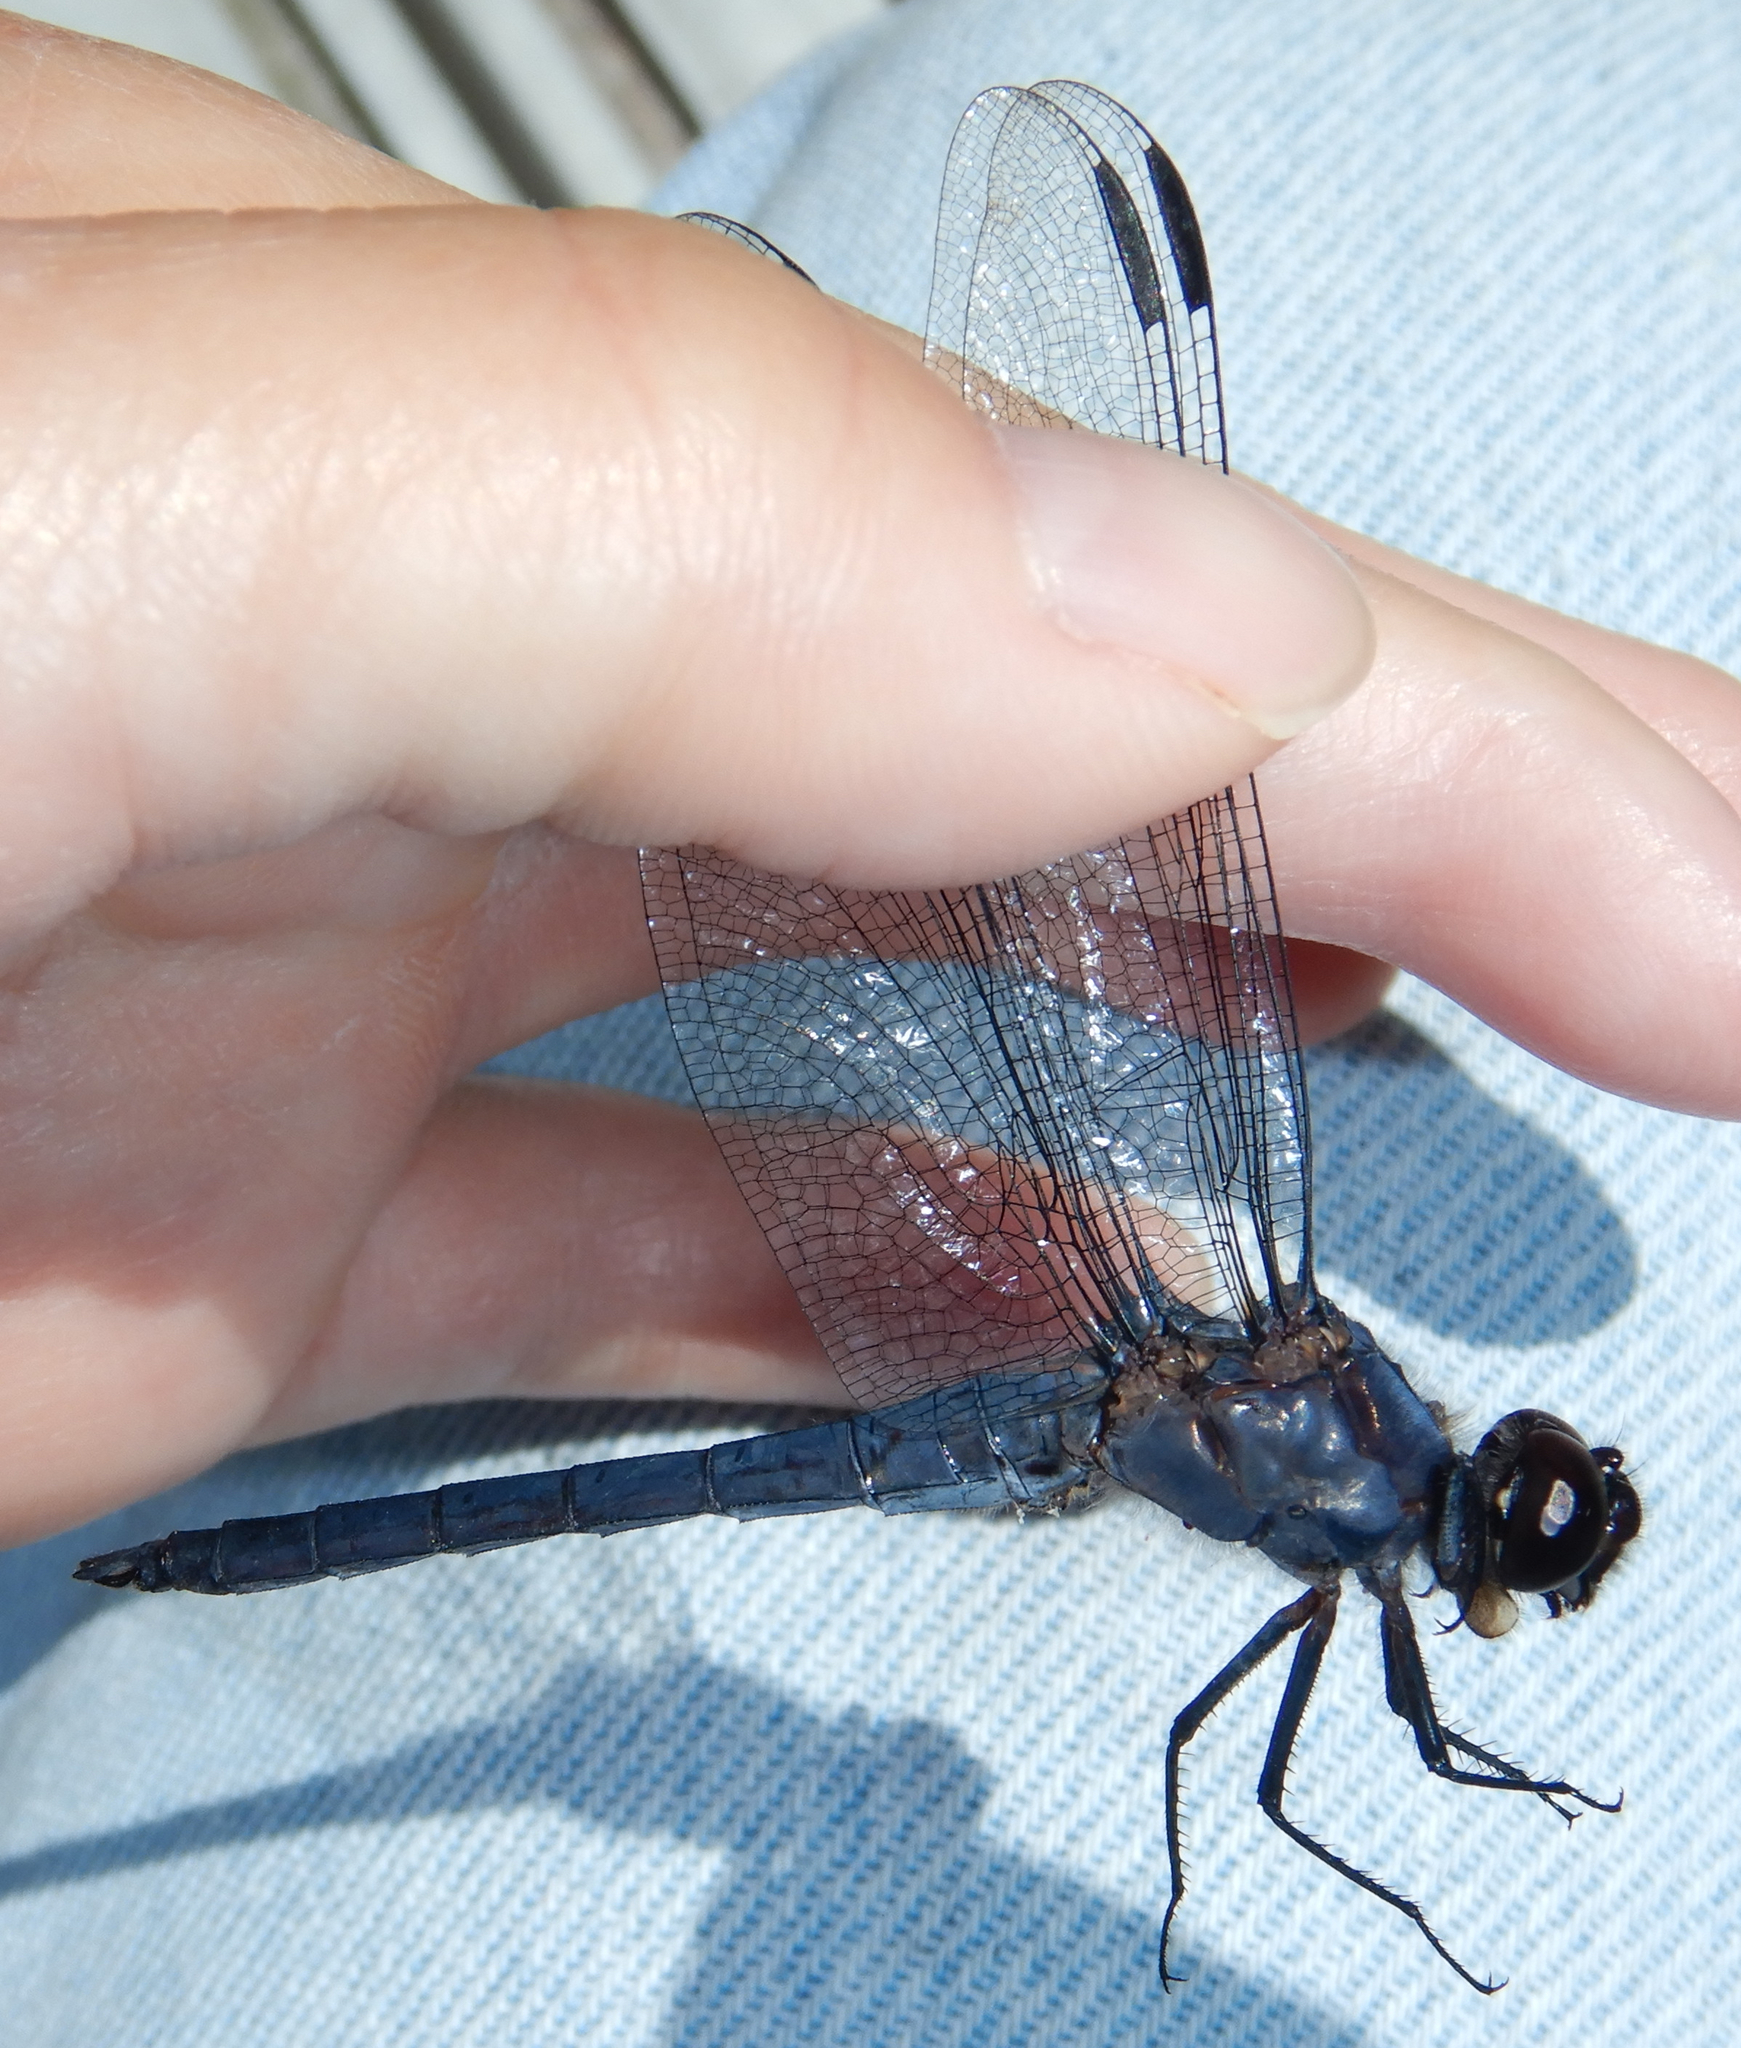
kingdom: Animalia
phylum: Arthropoda
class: Insecta
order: Odonata
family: Libellulidae
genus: Libellula
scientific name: Libellula incesta
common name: Slaty skimmer
